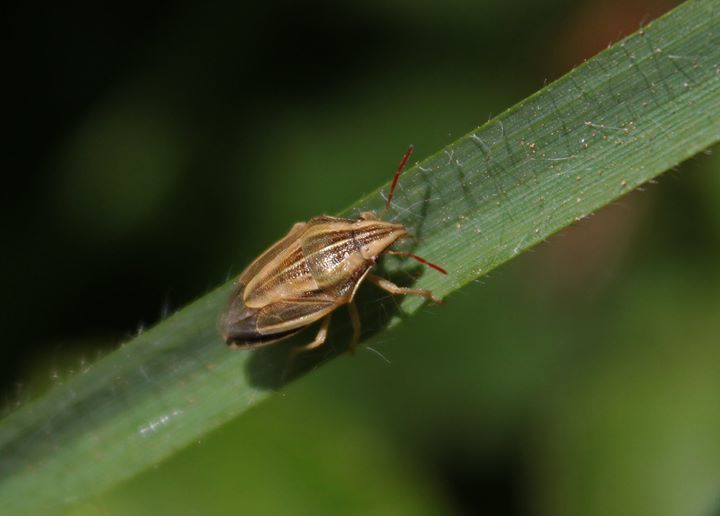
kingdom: Animalia
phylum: Arthropoda
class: Insecta
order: Hemiptera
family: Pentatomidae
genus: Aelia
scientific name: Aelia acuminata
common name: Bishop's mitre
